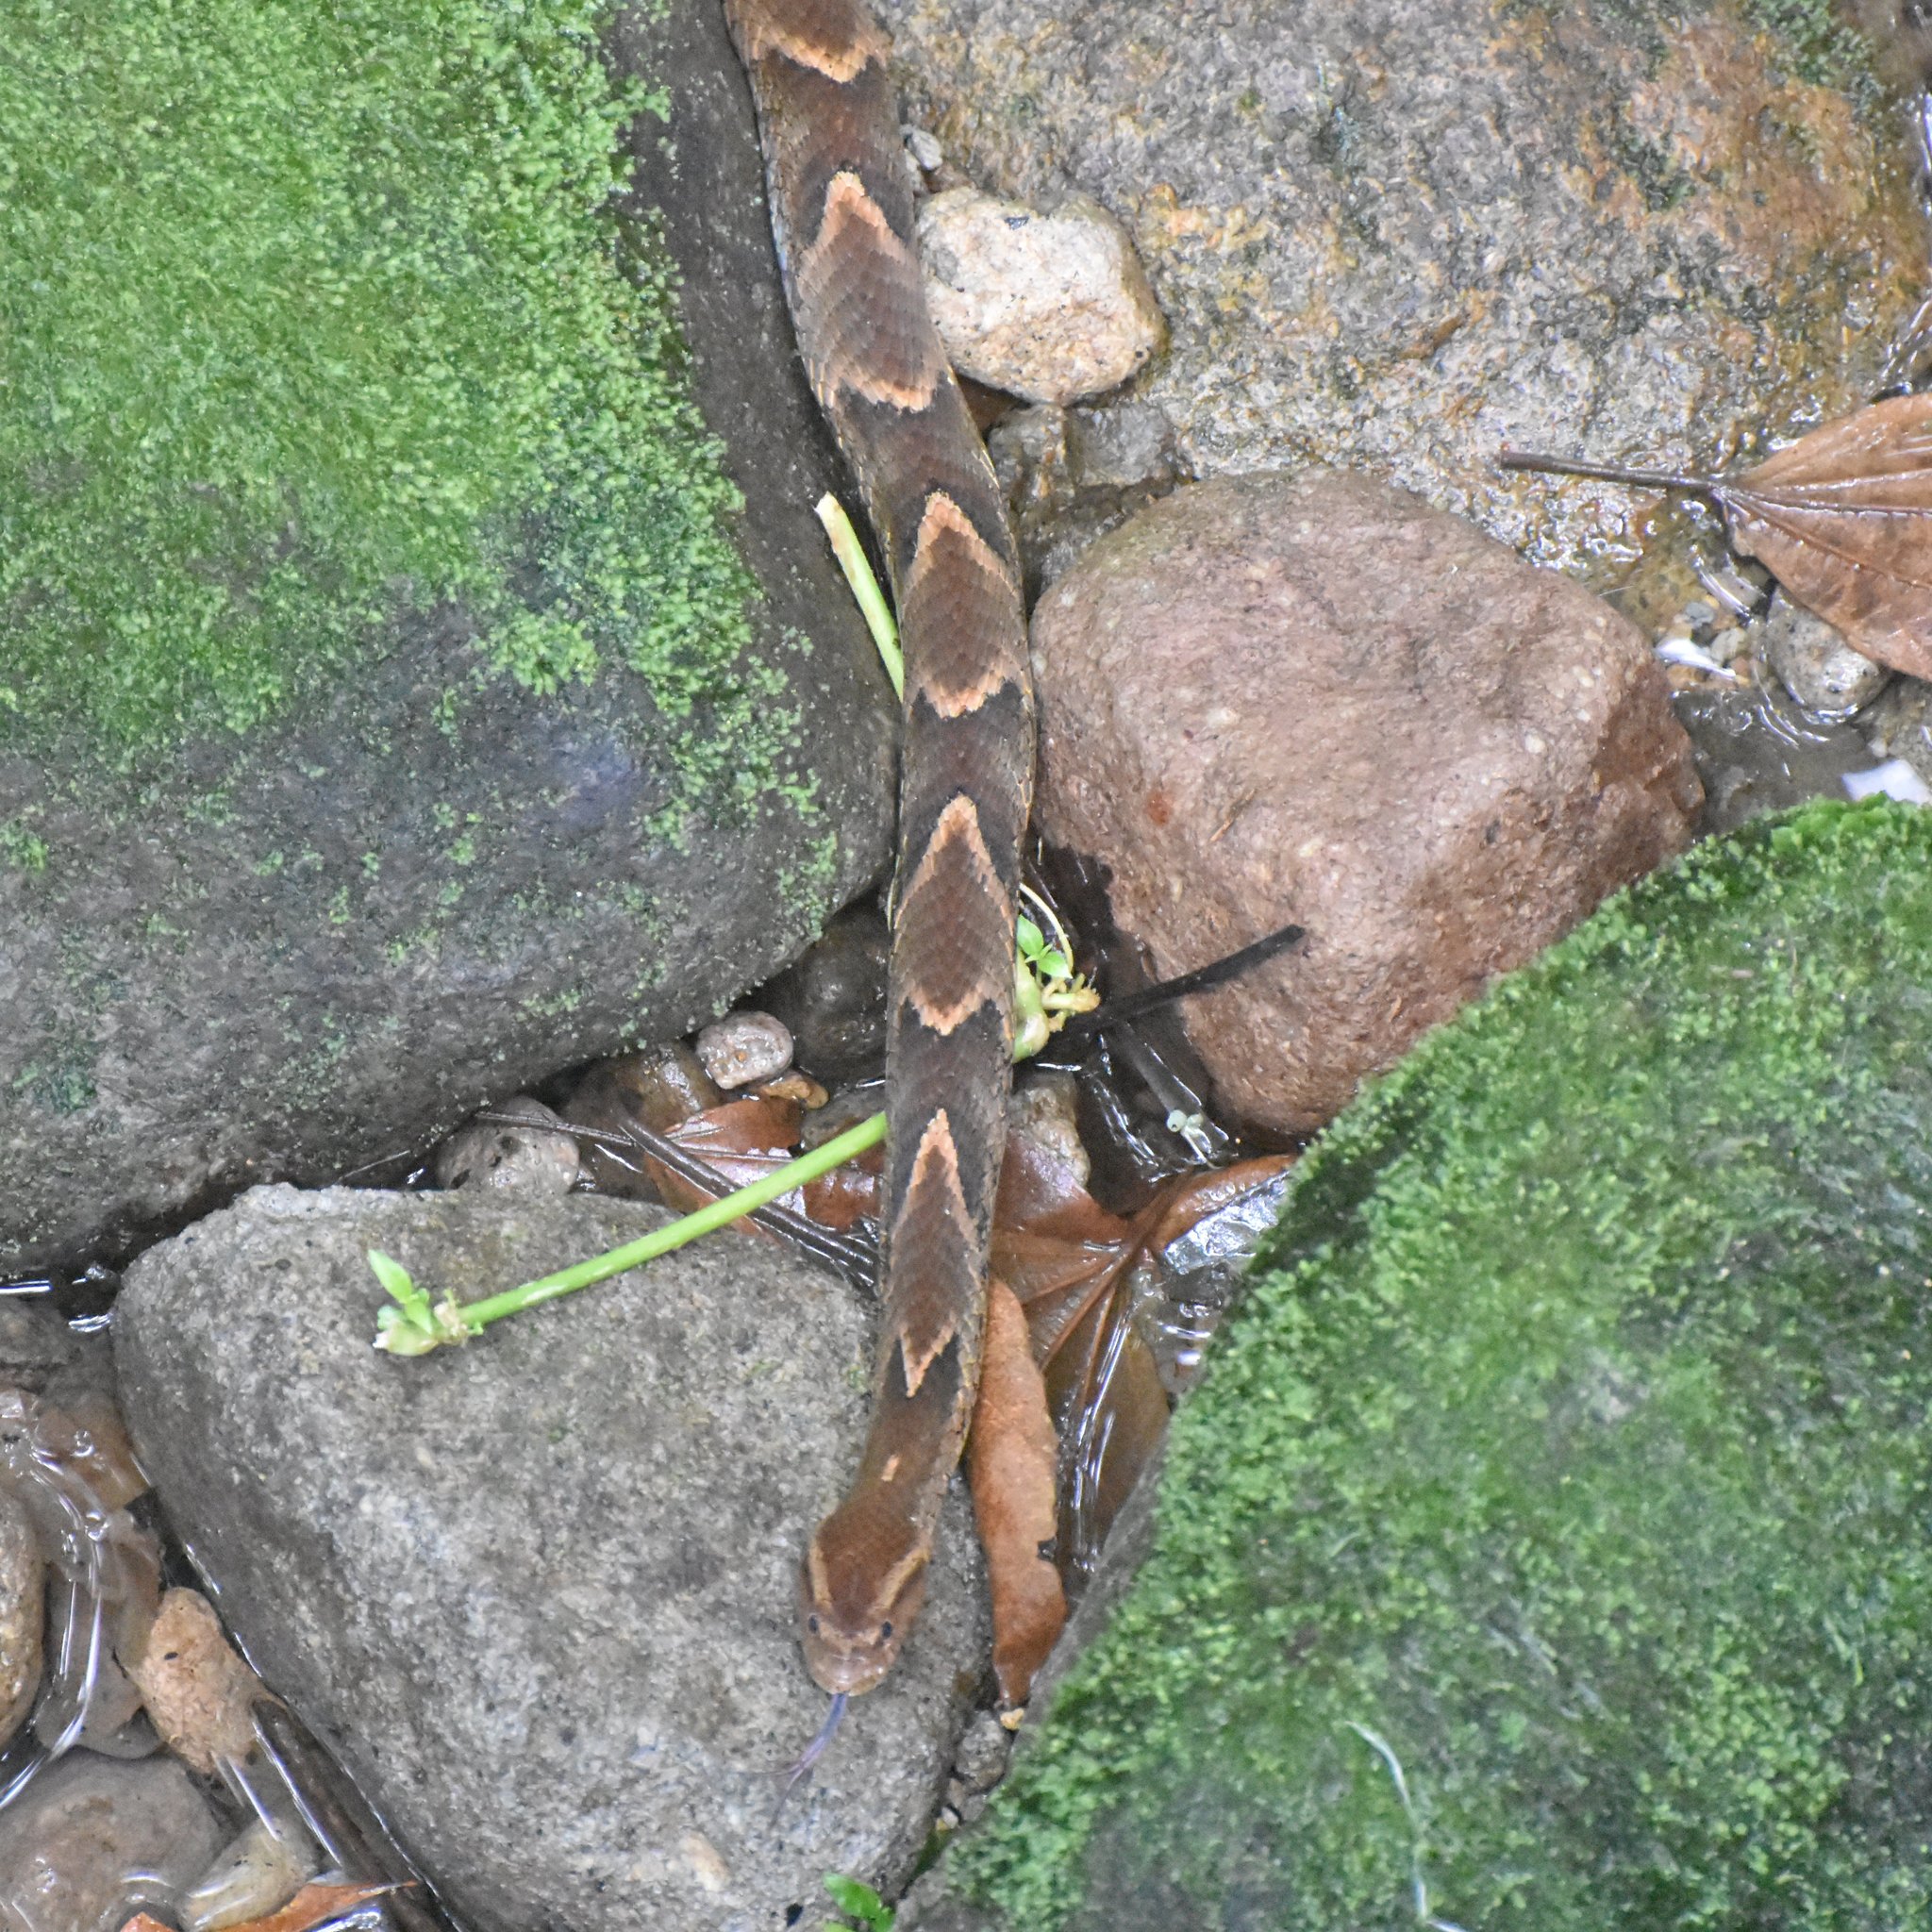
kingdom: Animalia
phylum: Chordata
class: Squamata
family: Colubridae
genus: Xenodon
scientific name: Xenodon rabdocephalus
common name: False fer-de-lance
